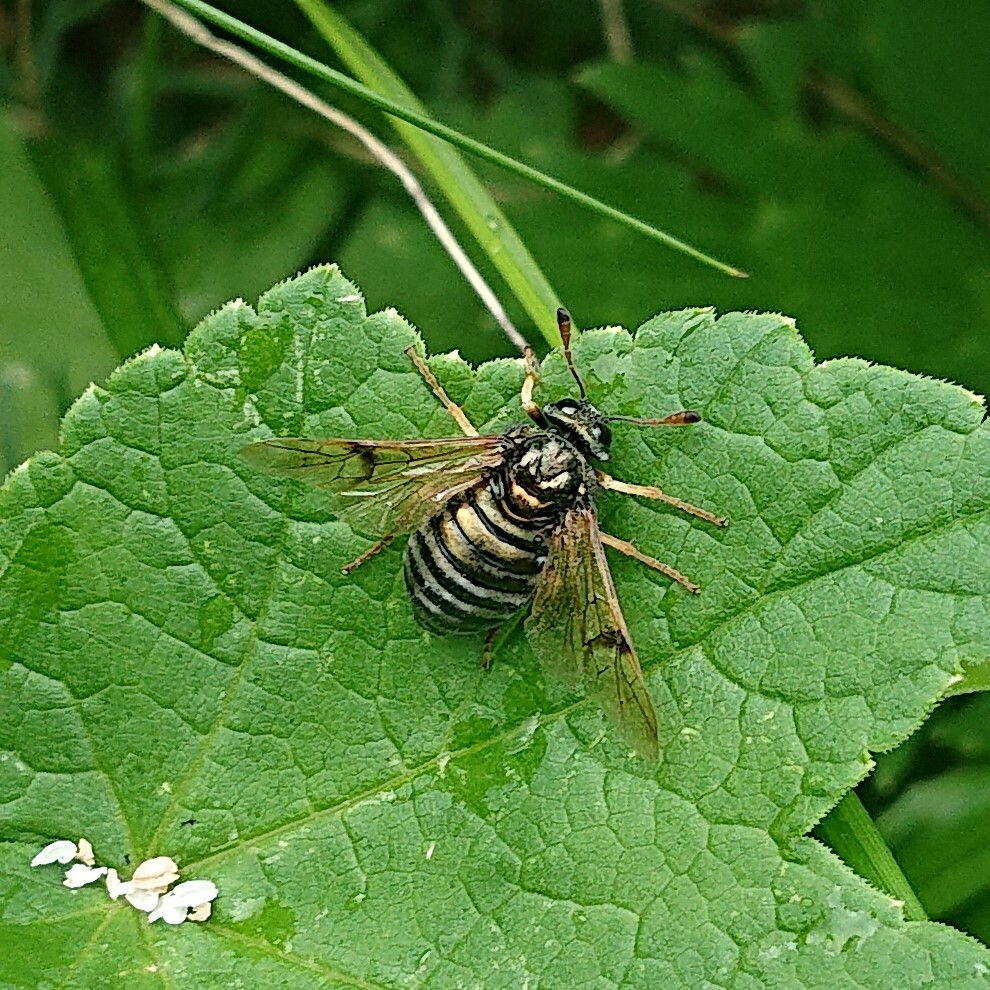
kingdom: Animalia
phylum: Arthropoda
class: Insecta
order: Hymenoptera
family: Cimbicidae
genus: Abia
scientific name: Abia fulgens
